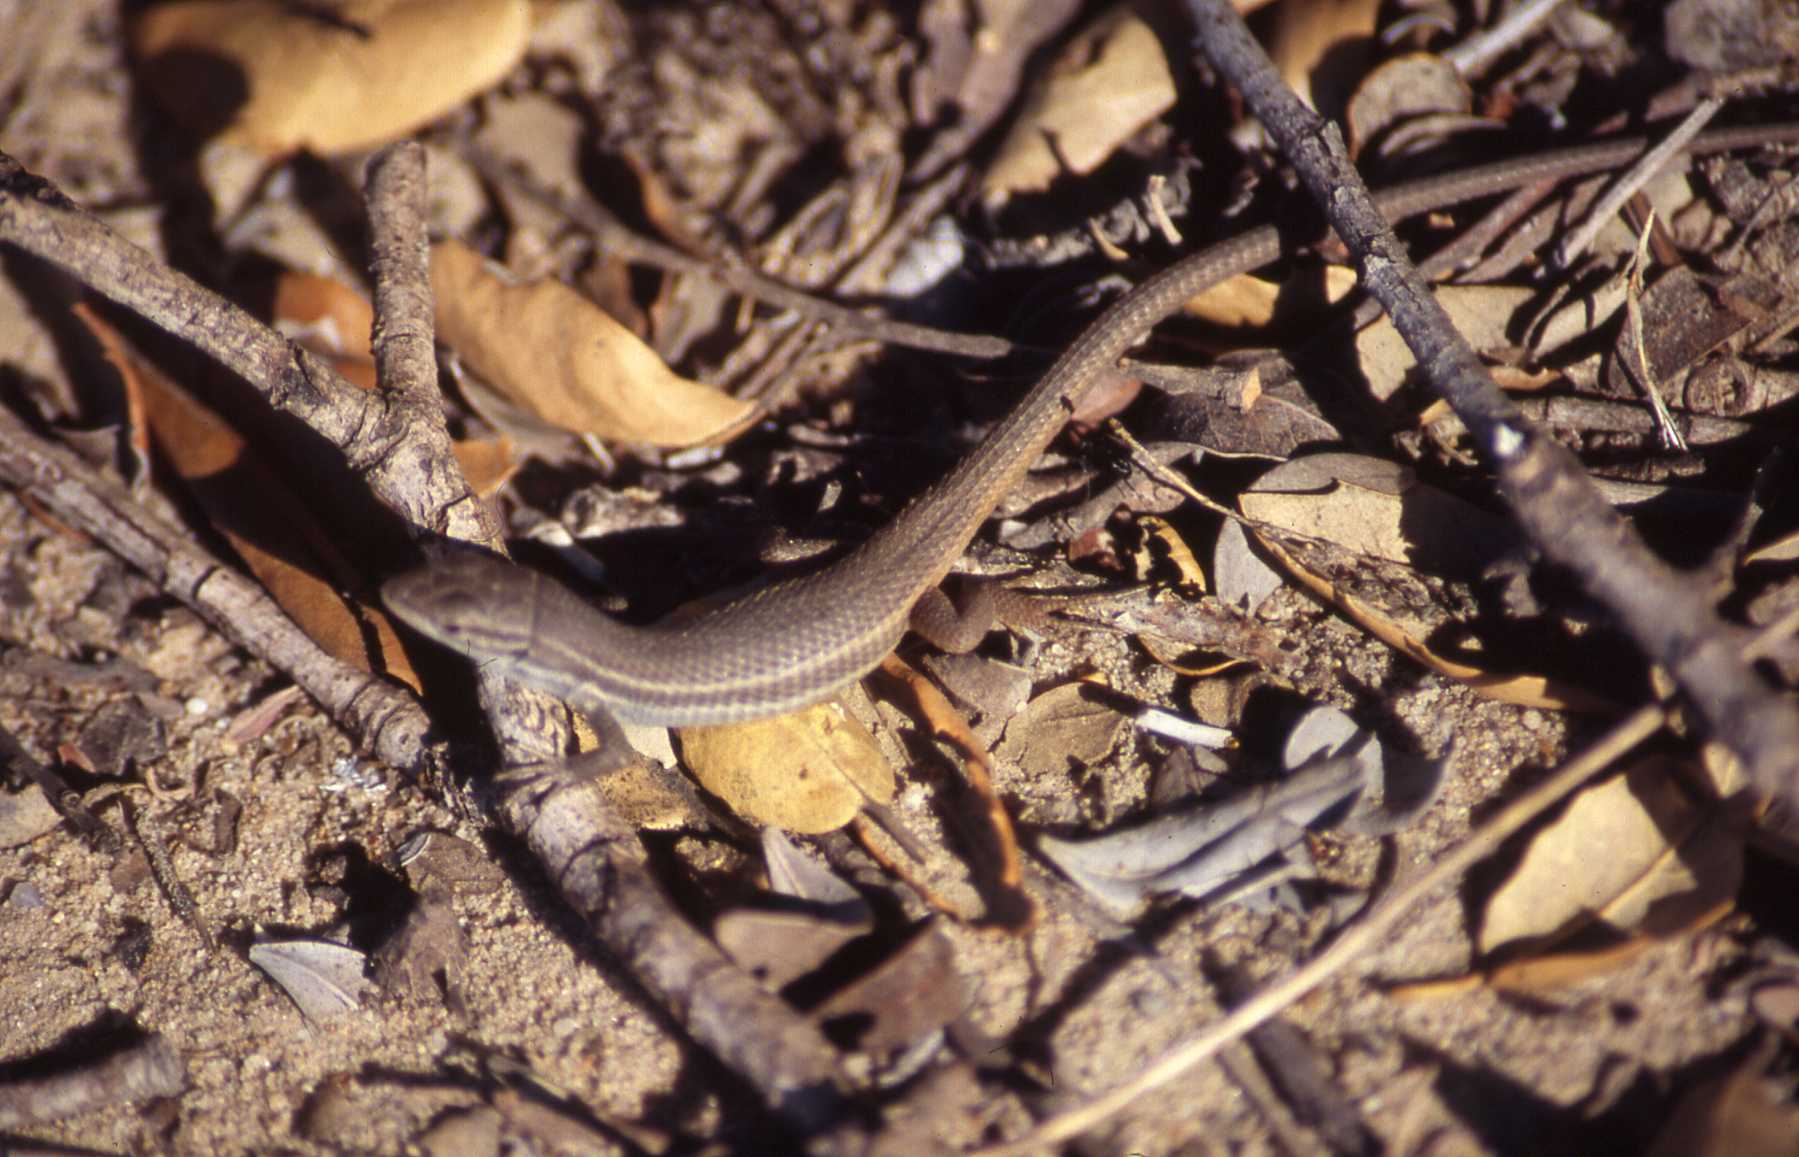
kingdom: Animalia
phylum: Chordata
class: Squamata
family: Lacertidae
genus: Psammodromus
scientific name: Psammodromus algirus
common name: Algerian psammodromus
